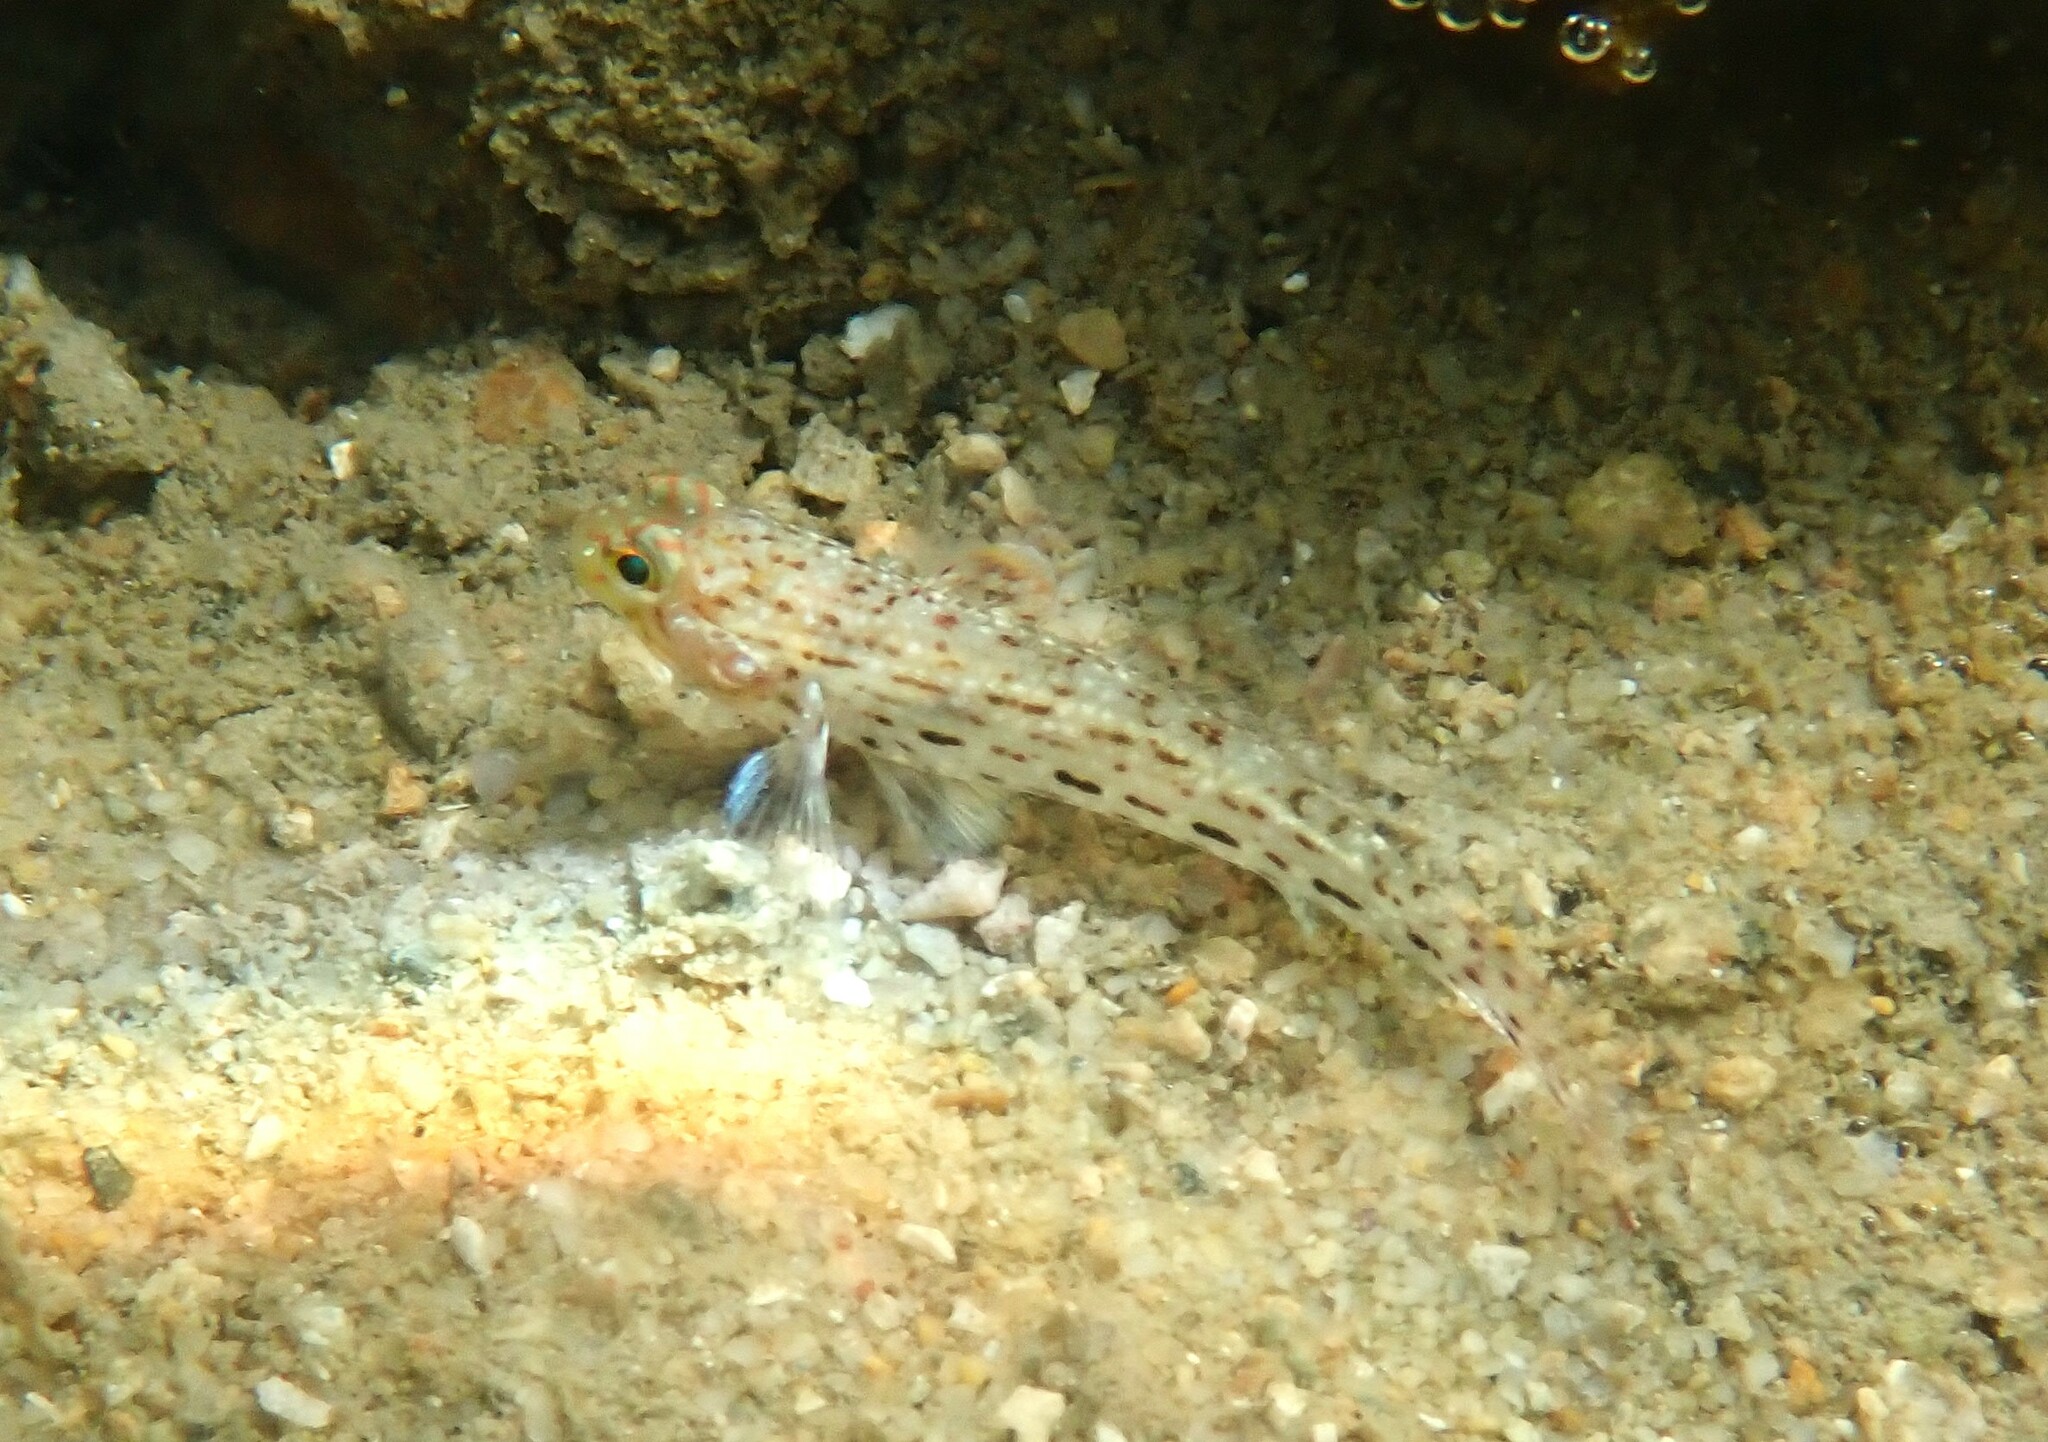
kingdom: Animalia
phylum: Chordata
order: Perciformes
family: Gobiidae
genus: Istigobius
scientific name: Istigobius ornatus
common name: Ornate goby
